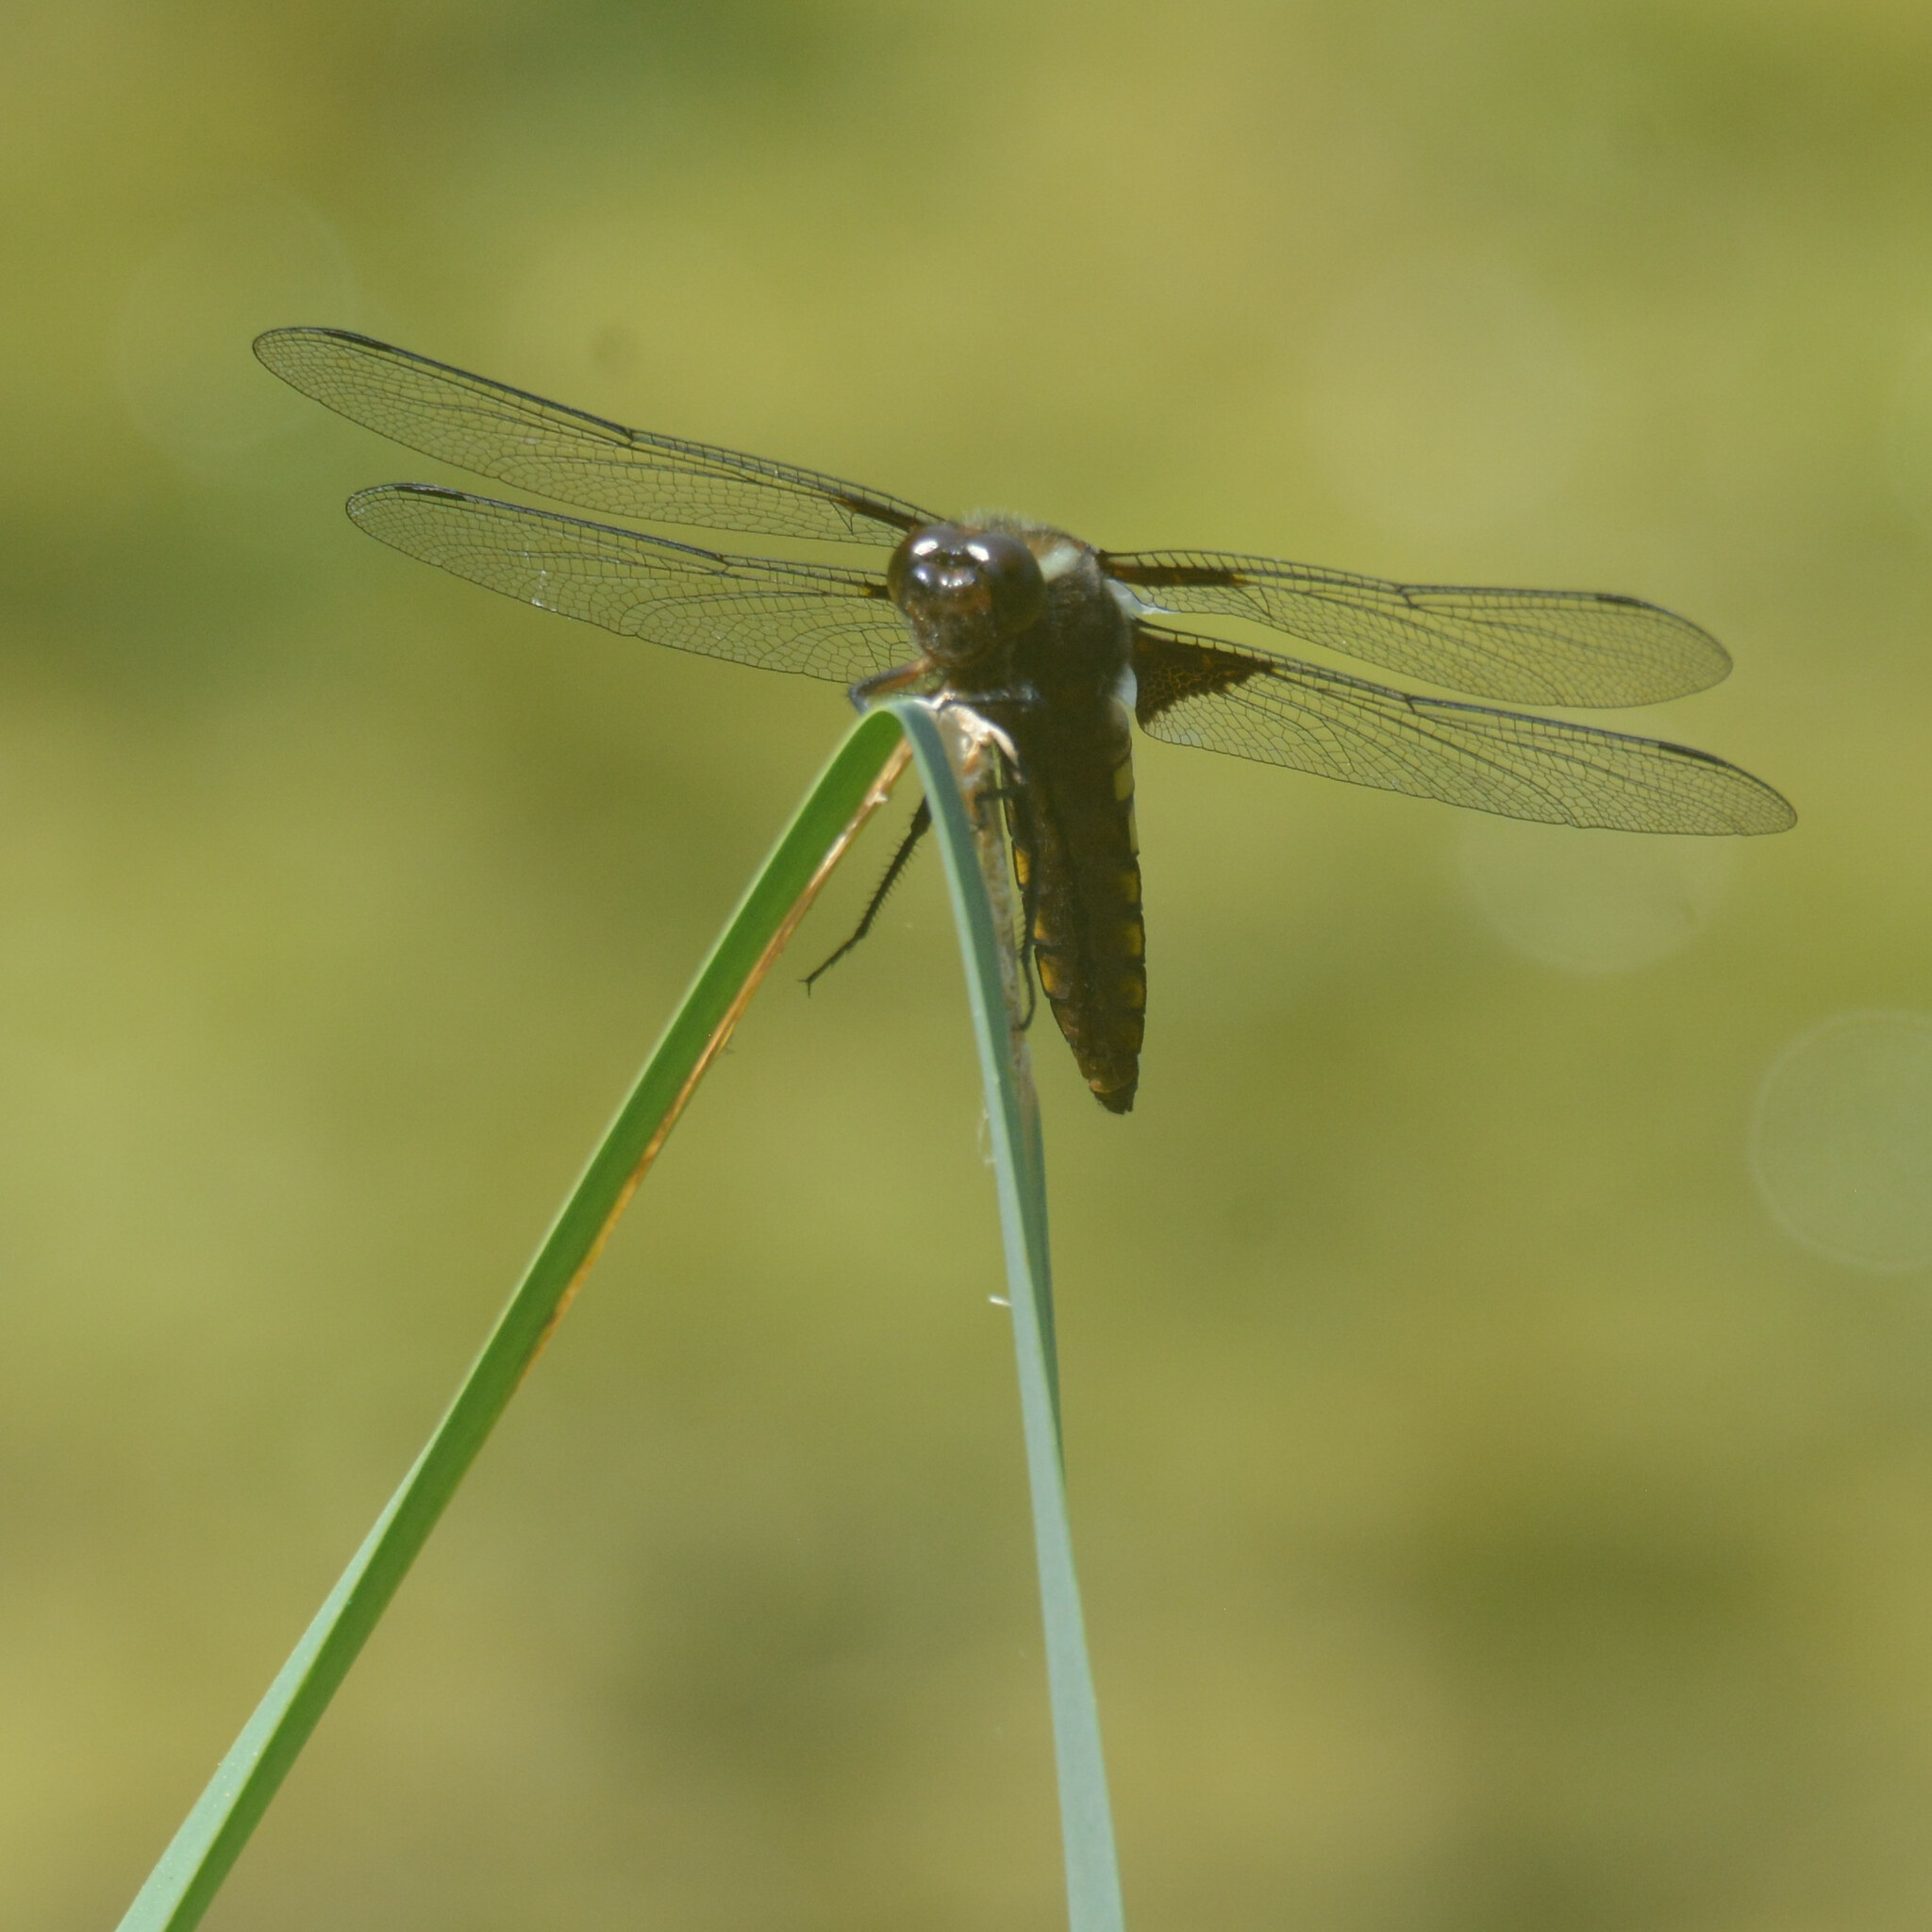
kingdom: Animalia
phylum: Arthropoda
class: Insecta
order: Odonata
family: Libellulidae
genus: Libellula
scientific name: Libellula depressa
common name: Broad-bodied chaser
